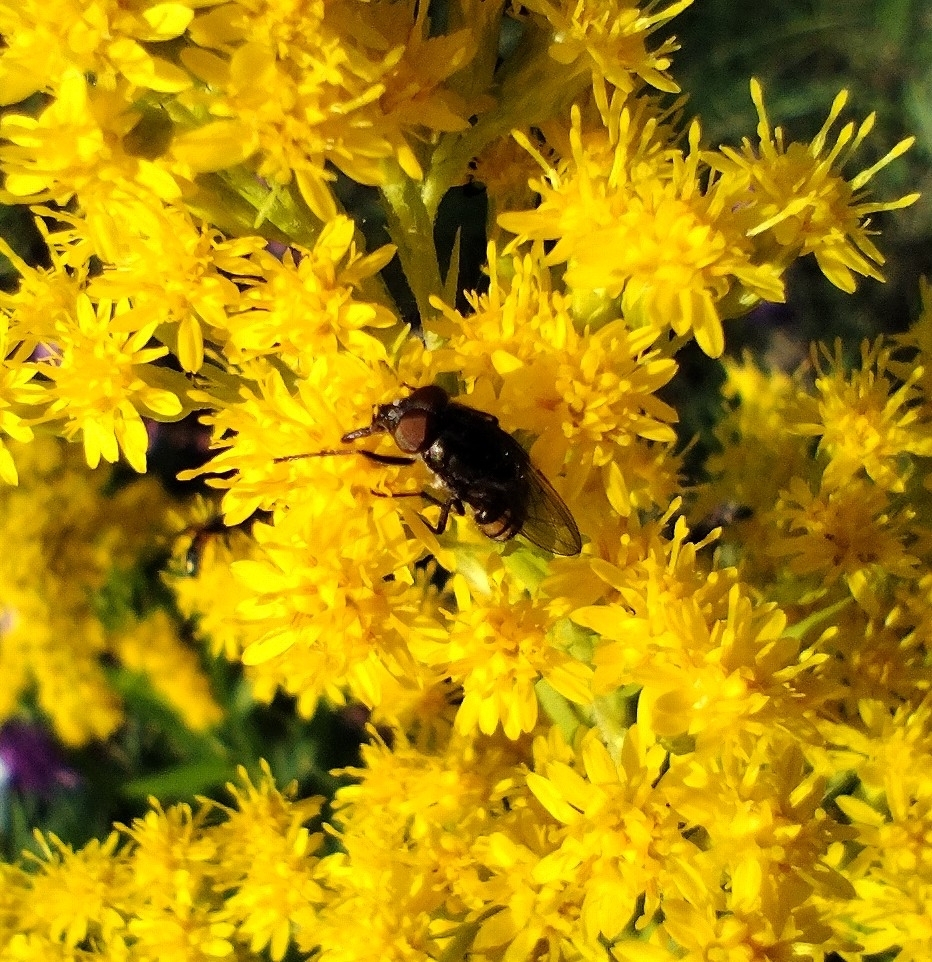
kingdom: Animalia
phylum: Arthropoda
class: Insecta
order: Diptera
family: Calliphoridae
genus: Stomorhina
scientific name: Stomorhina lunata
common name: Locust blowfly
